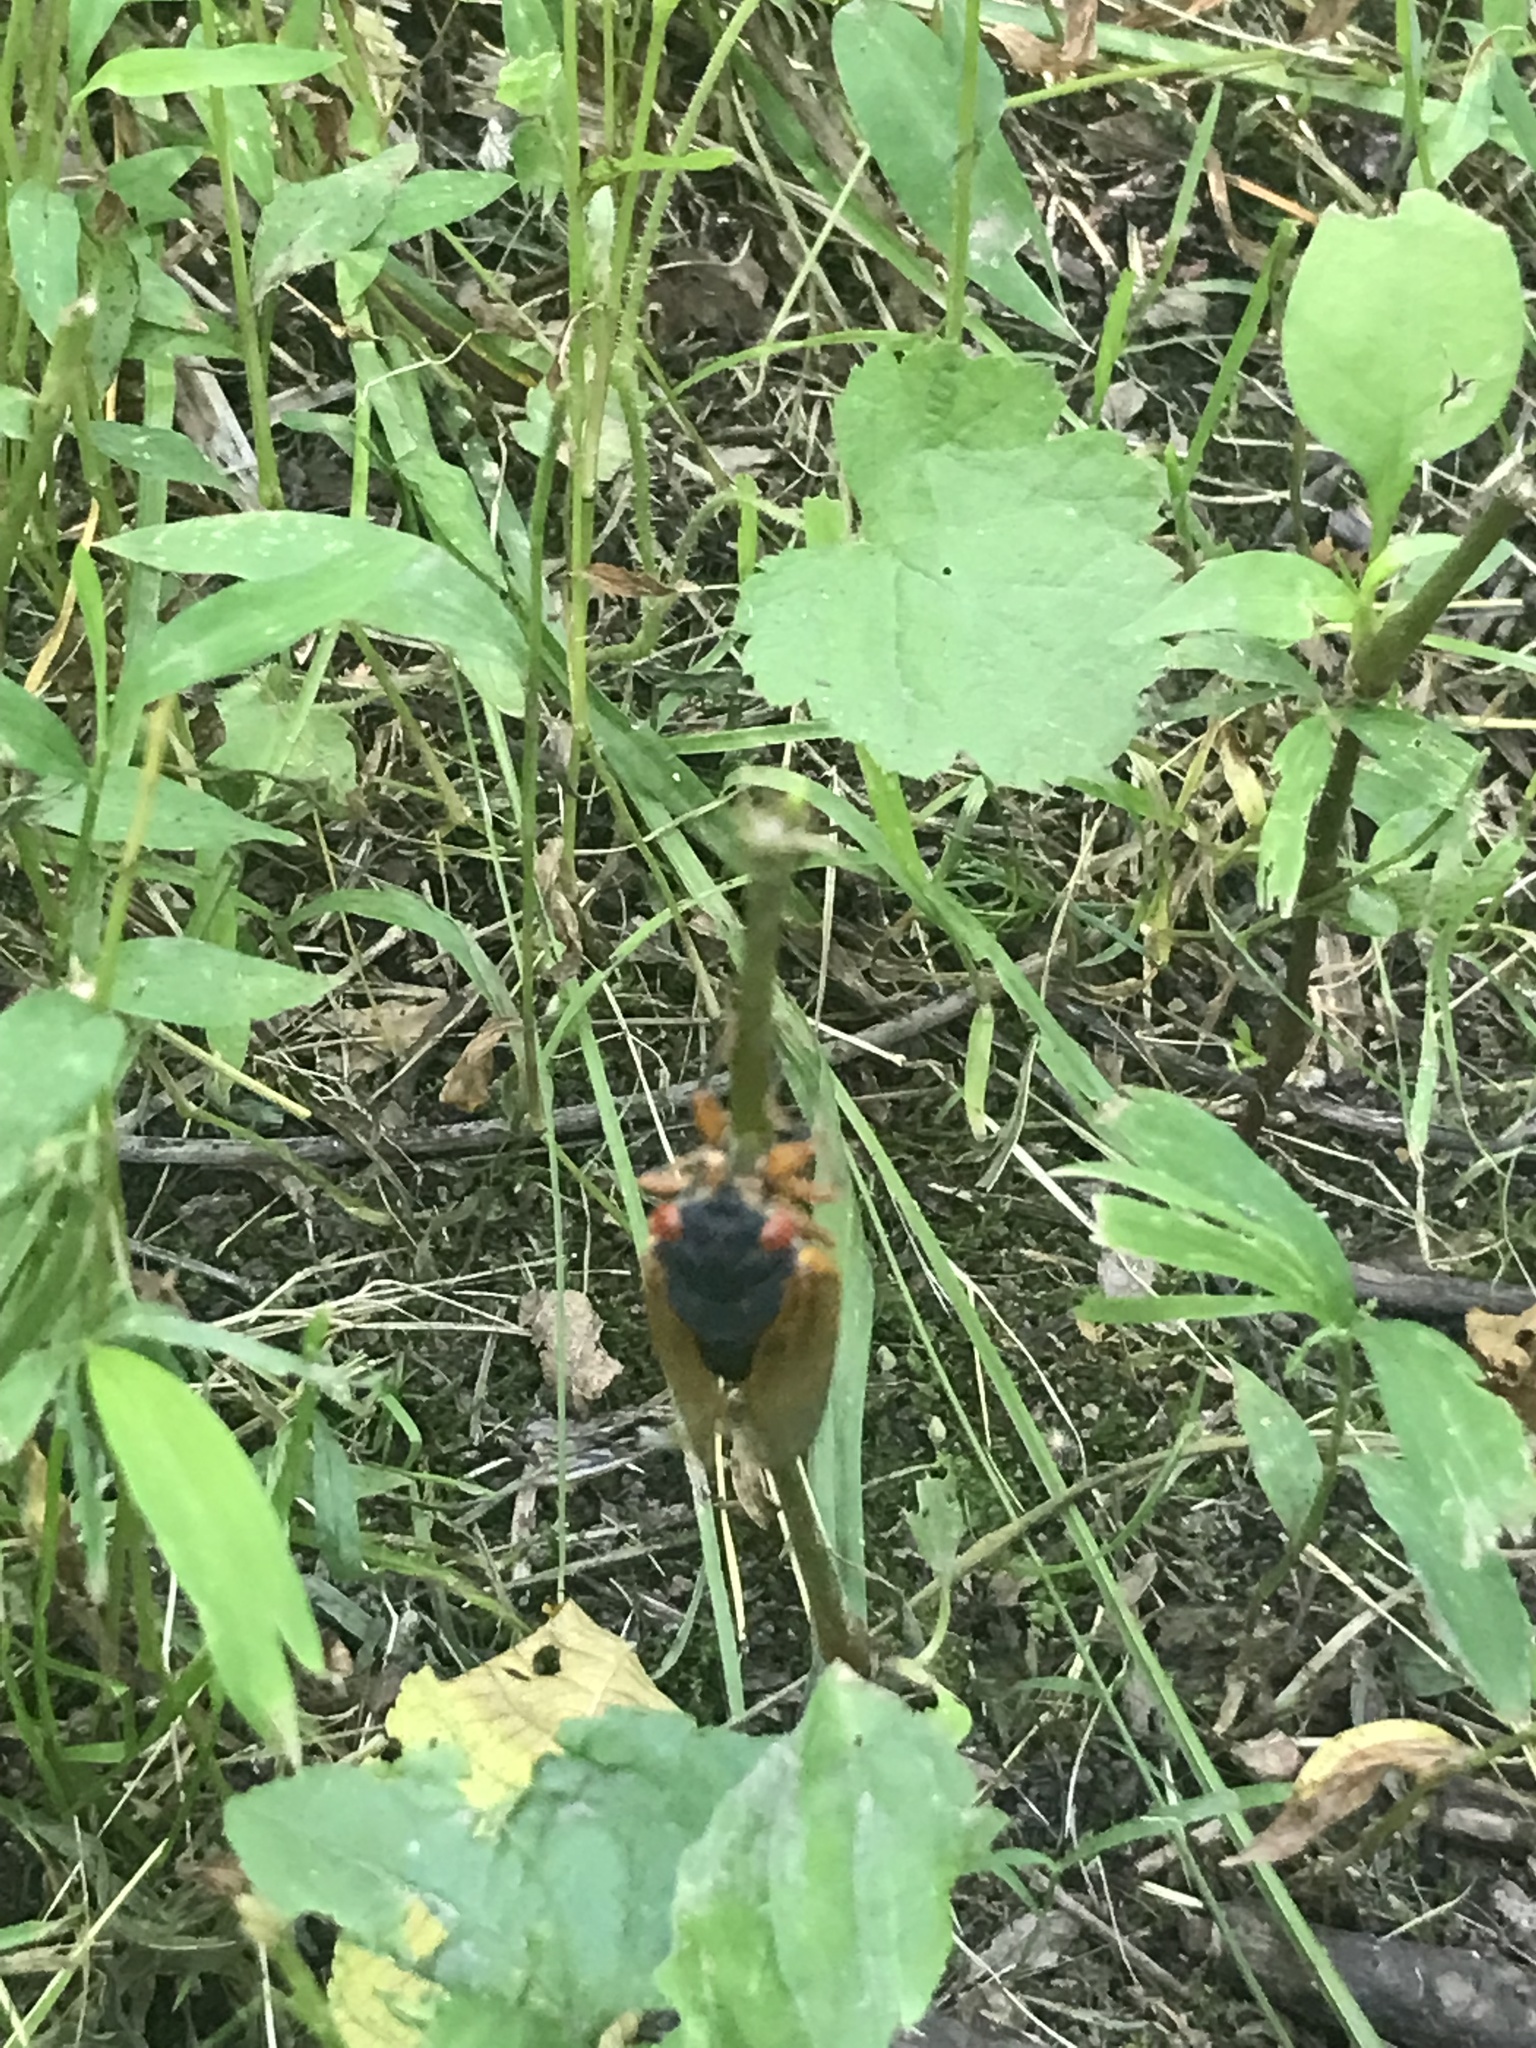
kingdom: Animalia
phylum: Arthropoda
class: Insecta
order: Hemiptera
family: Cicadidae
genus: Magicicada
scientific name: Magicicada
